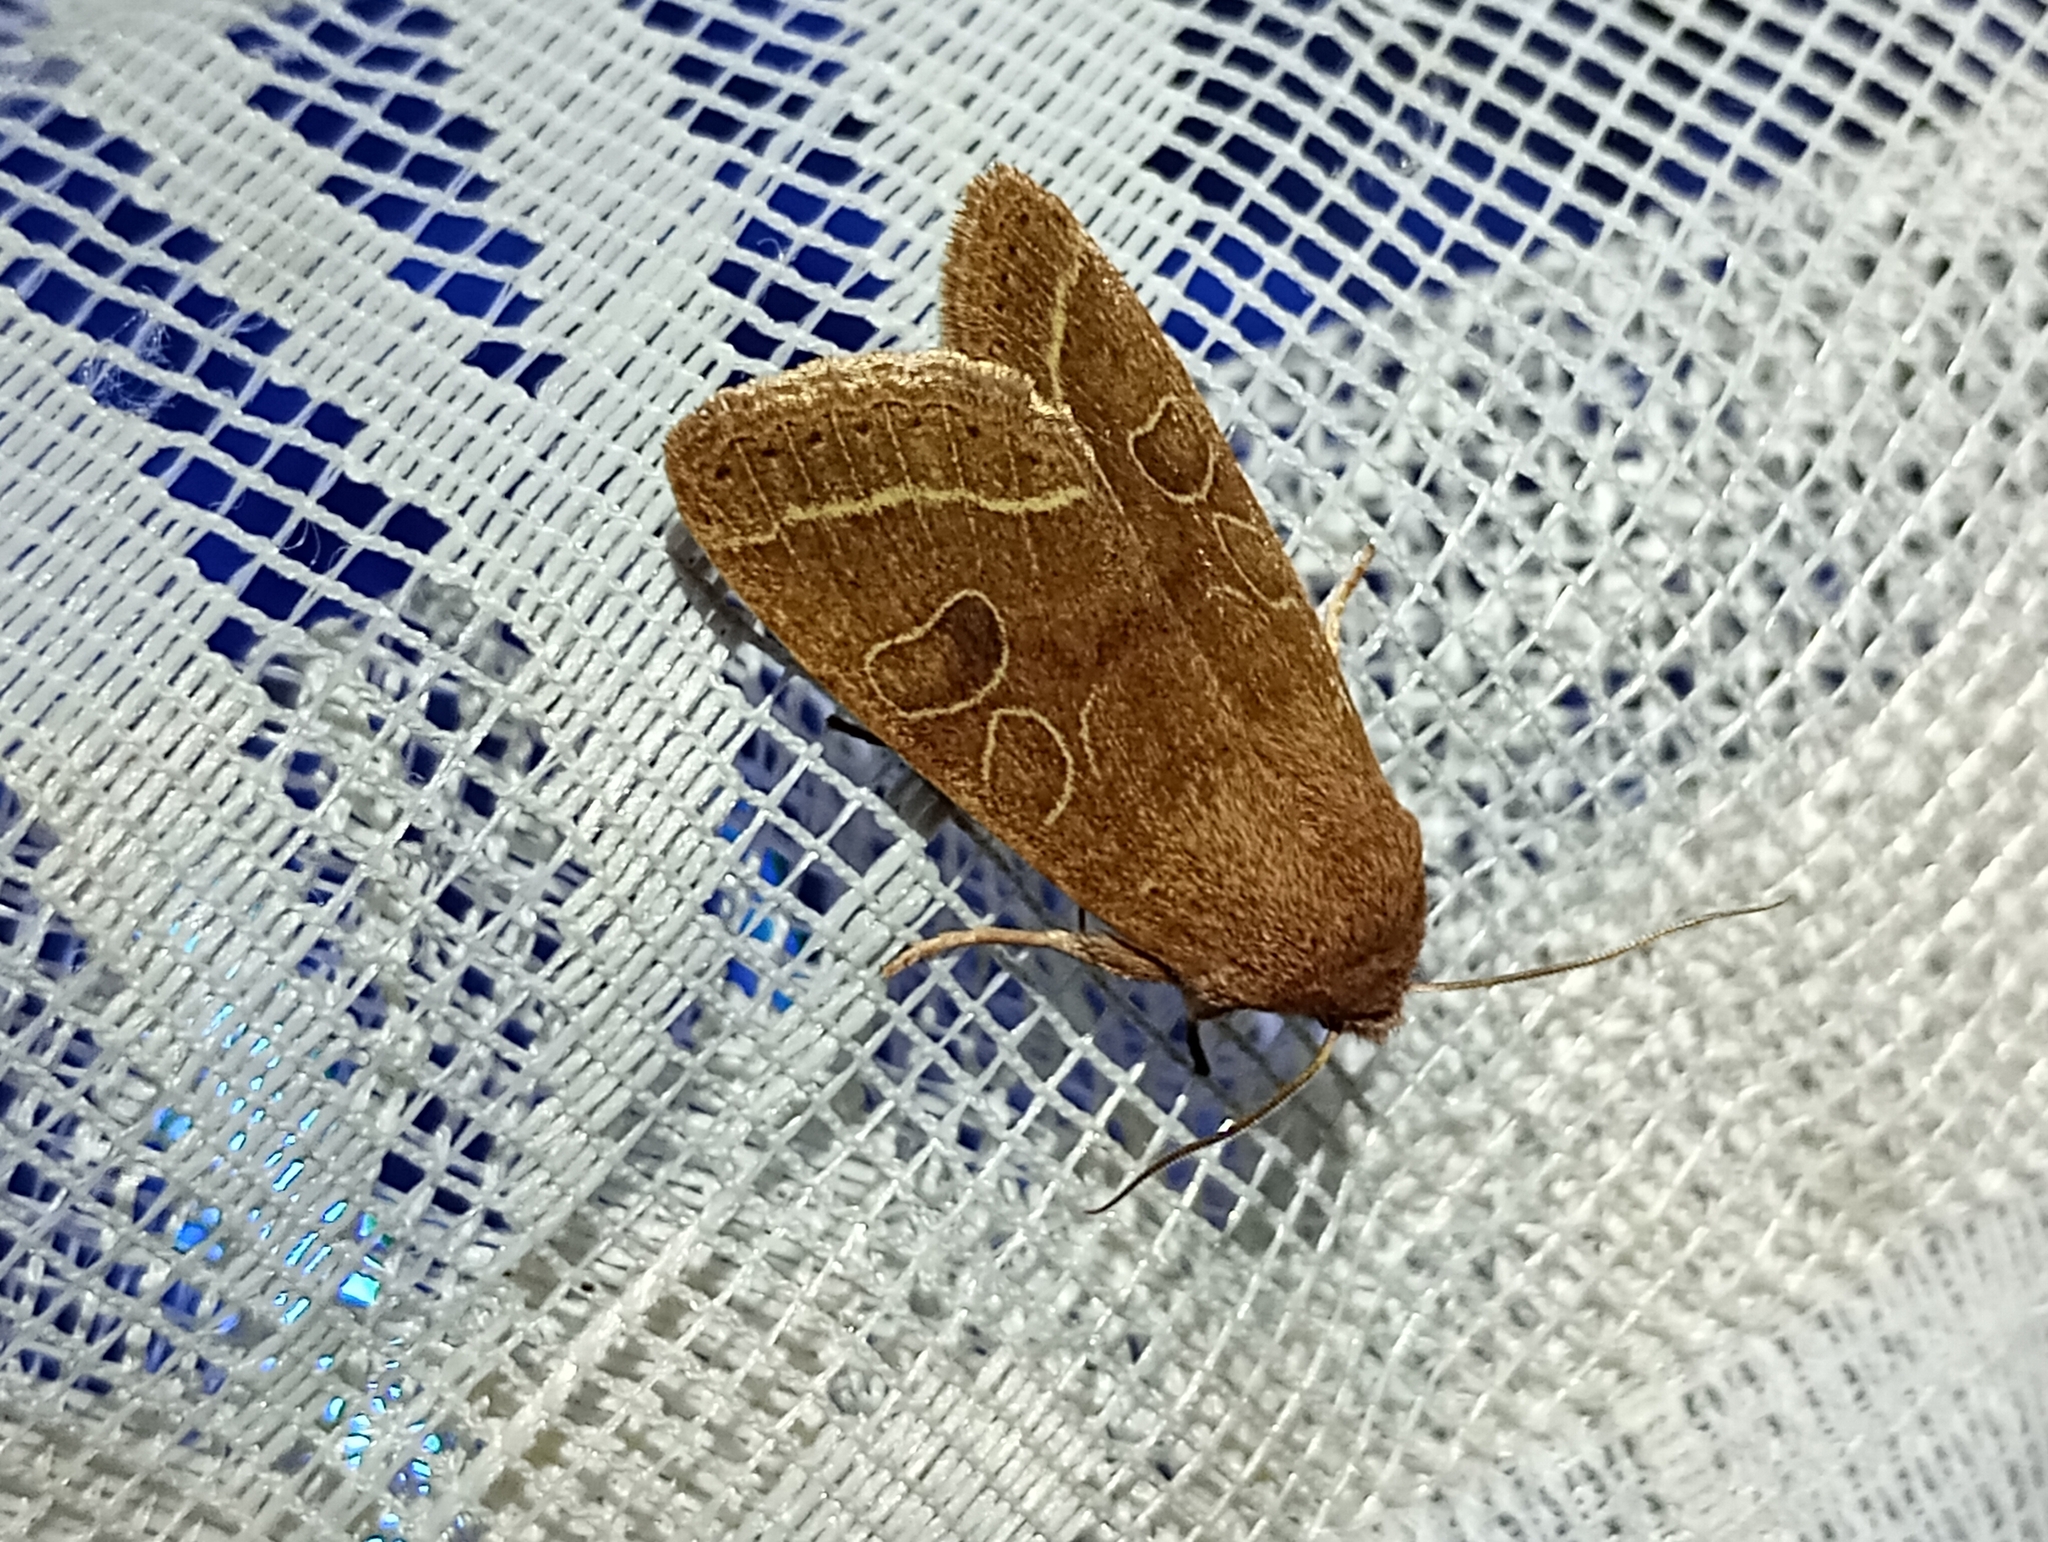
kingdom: Animalia
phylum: Arthropoda
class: Insecta
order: Lepidoptera
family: Noctuidae
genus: Orthosia
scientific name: Orthosia cerasi
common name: Common quaker
